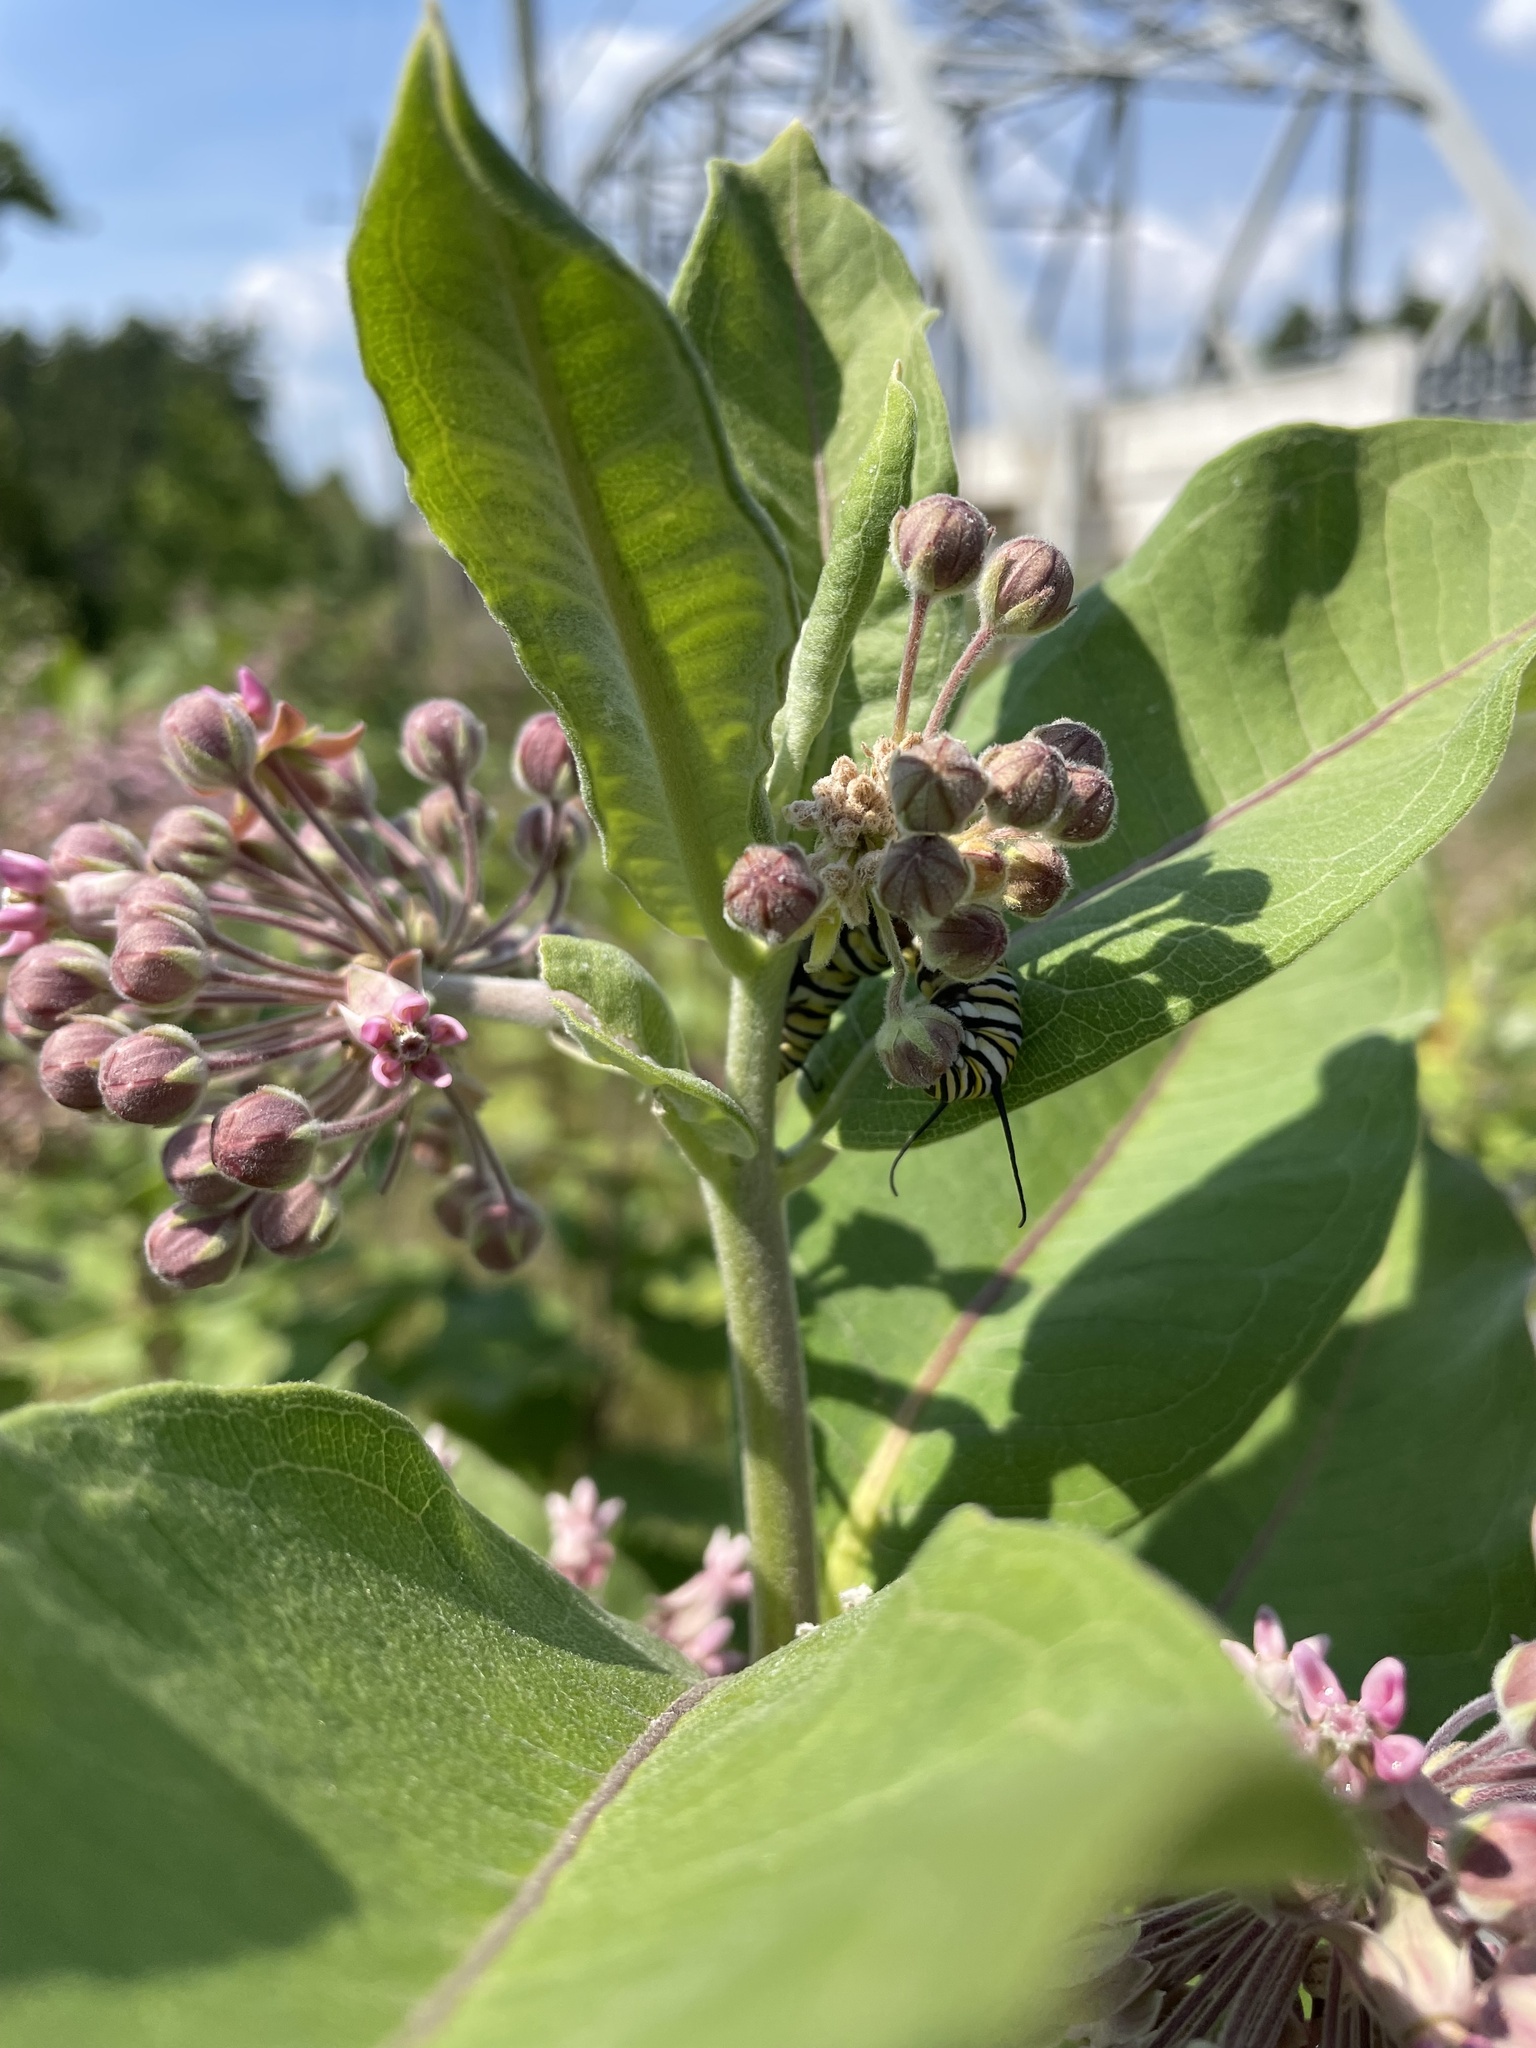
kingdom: Animalia
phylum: Arthropoda
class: Insecta
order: Lepidoptera
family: Nymphalidae
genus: Danaus
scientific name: Danaus plexippus
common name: Monarch
